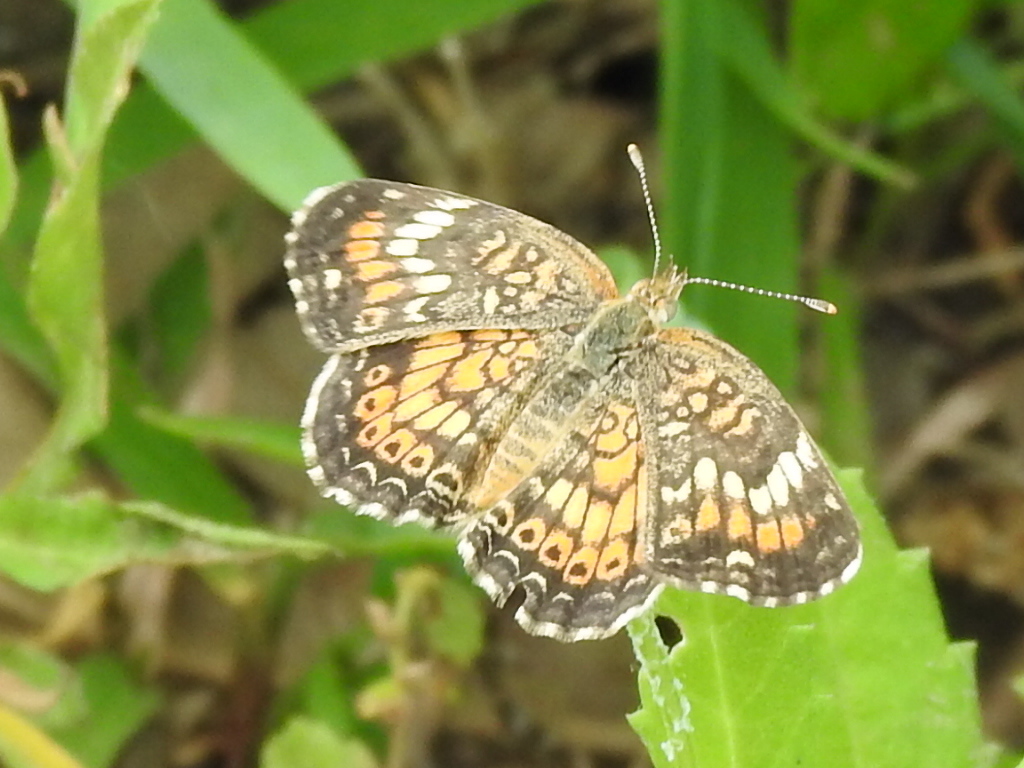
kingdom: Animalia
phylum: Arthropoda
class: Insecta
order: Lepidoptera
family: Nymphalidae
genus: Phyciodes
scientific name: Phyciodes phaon
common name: Phaon crescent
